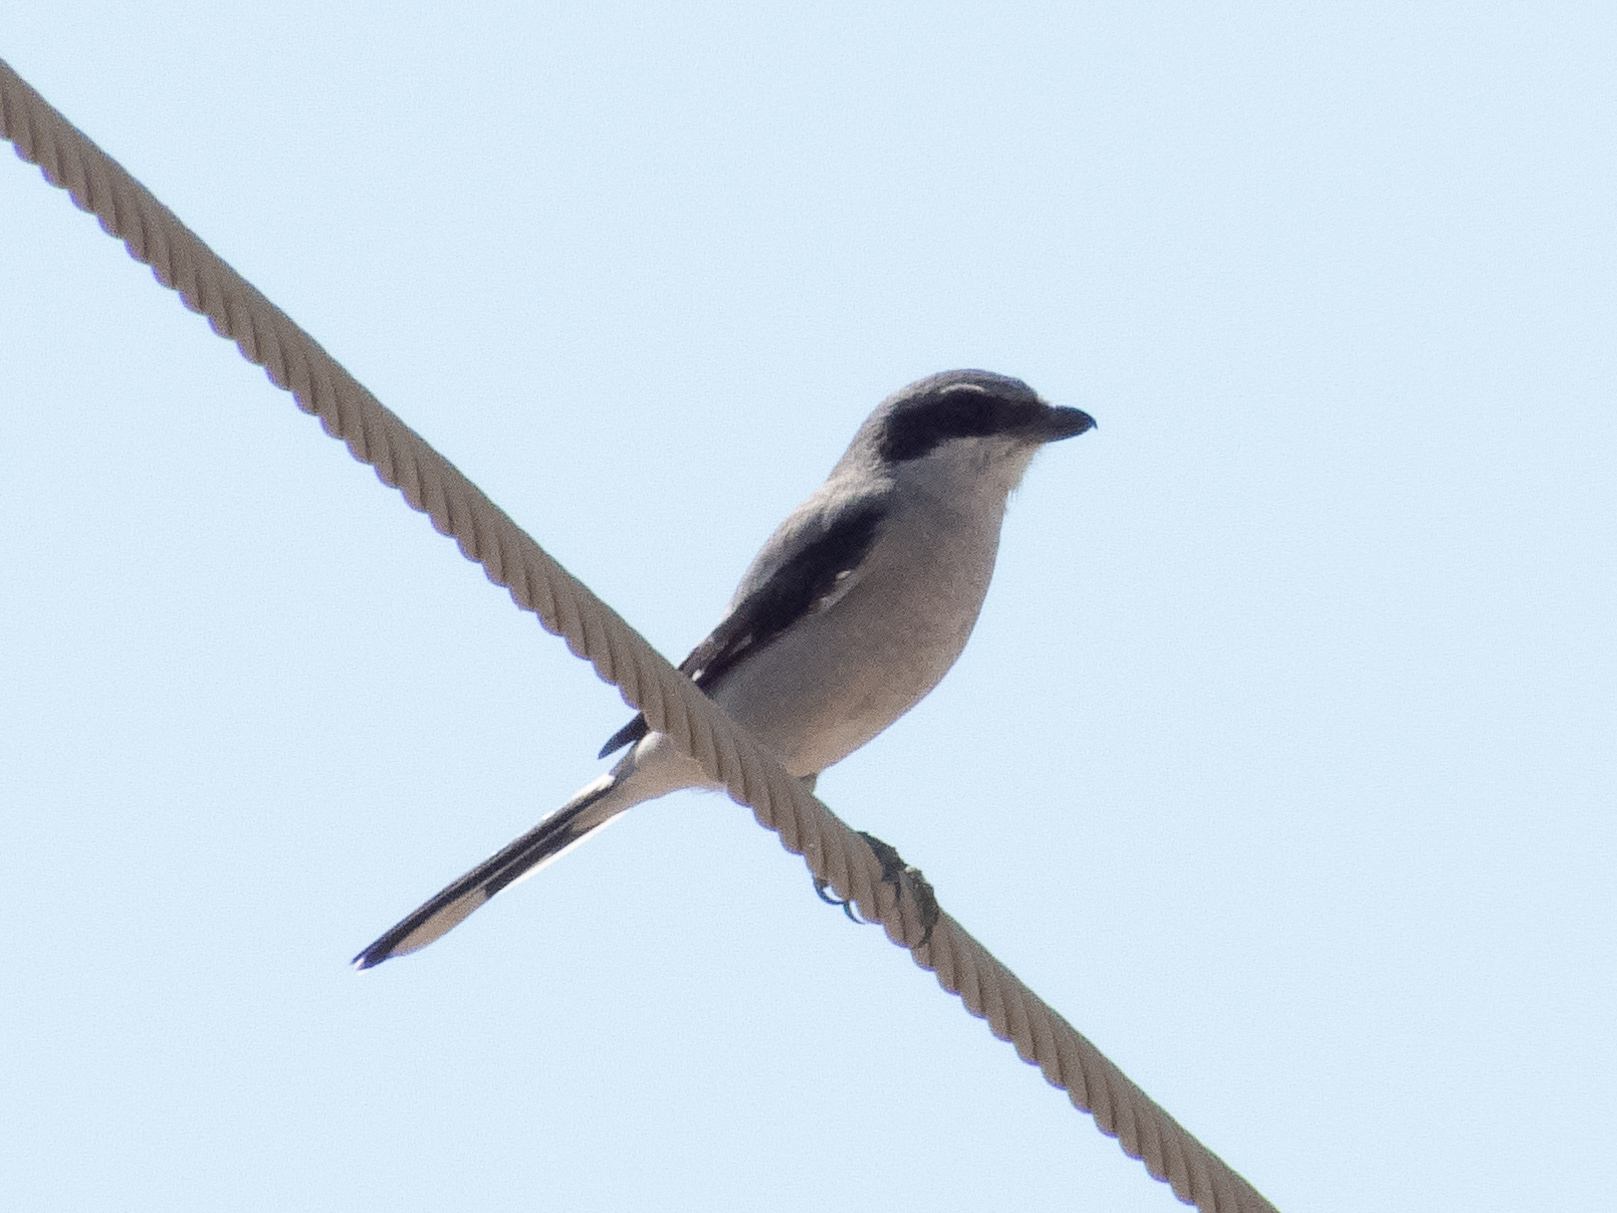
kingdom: Animalia
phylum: Chordata
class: Aves
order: Passeriformes
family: Laniidae
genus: Lanius
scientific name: Lanius ludovicianus
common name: Loggerhead shrike
